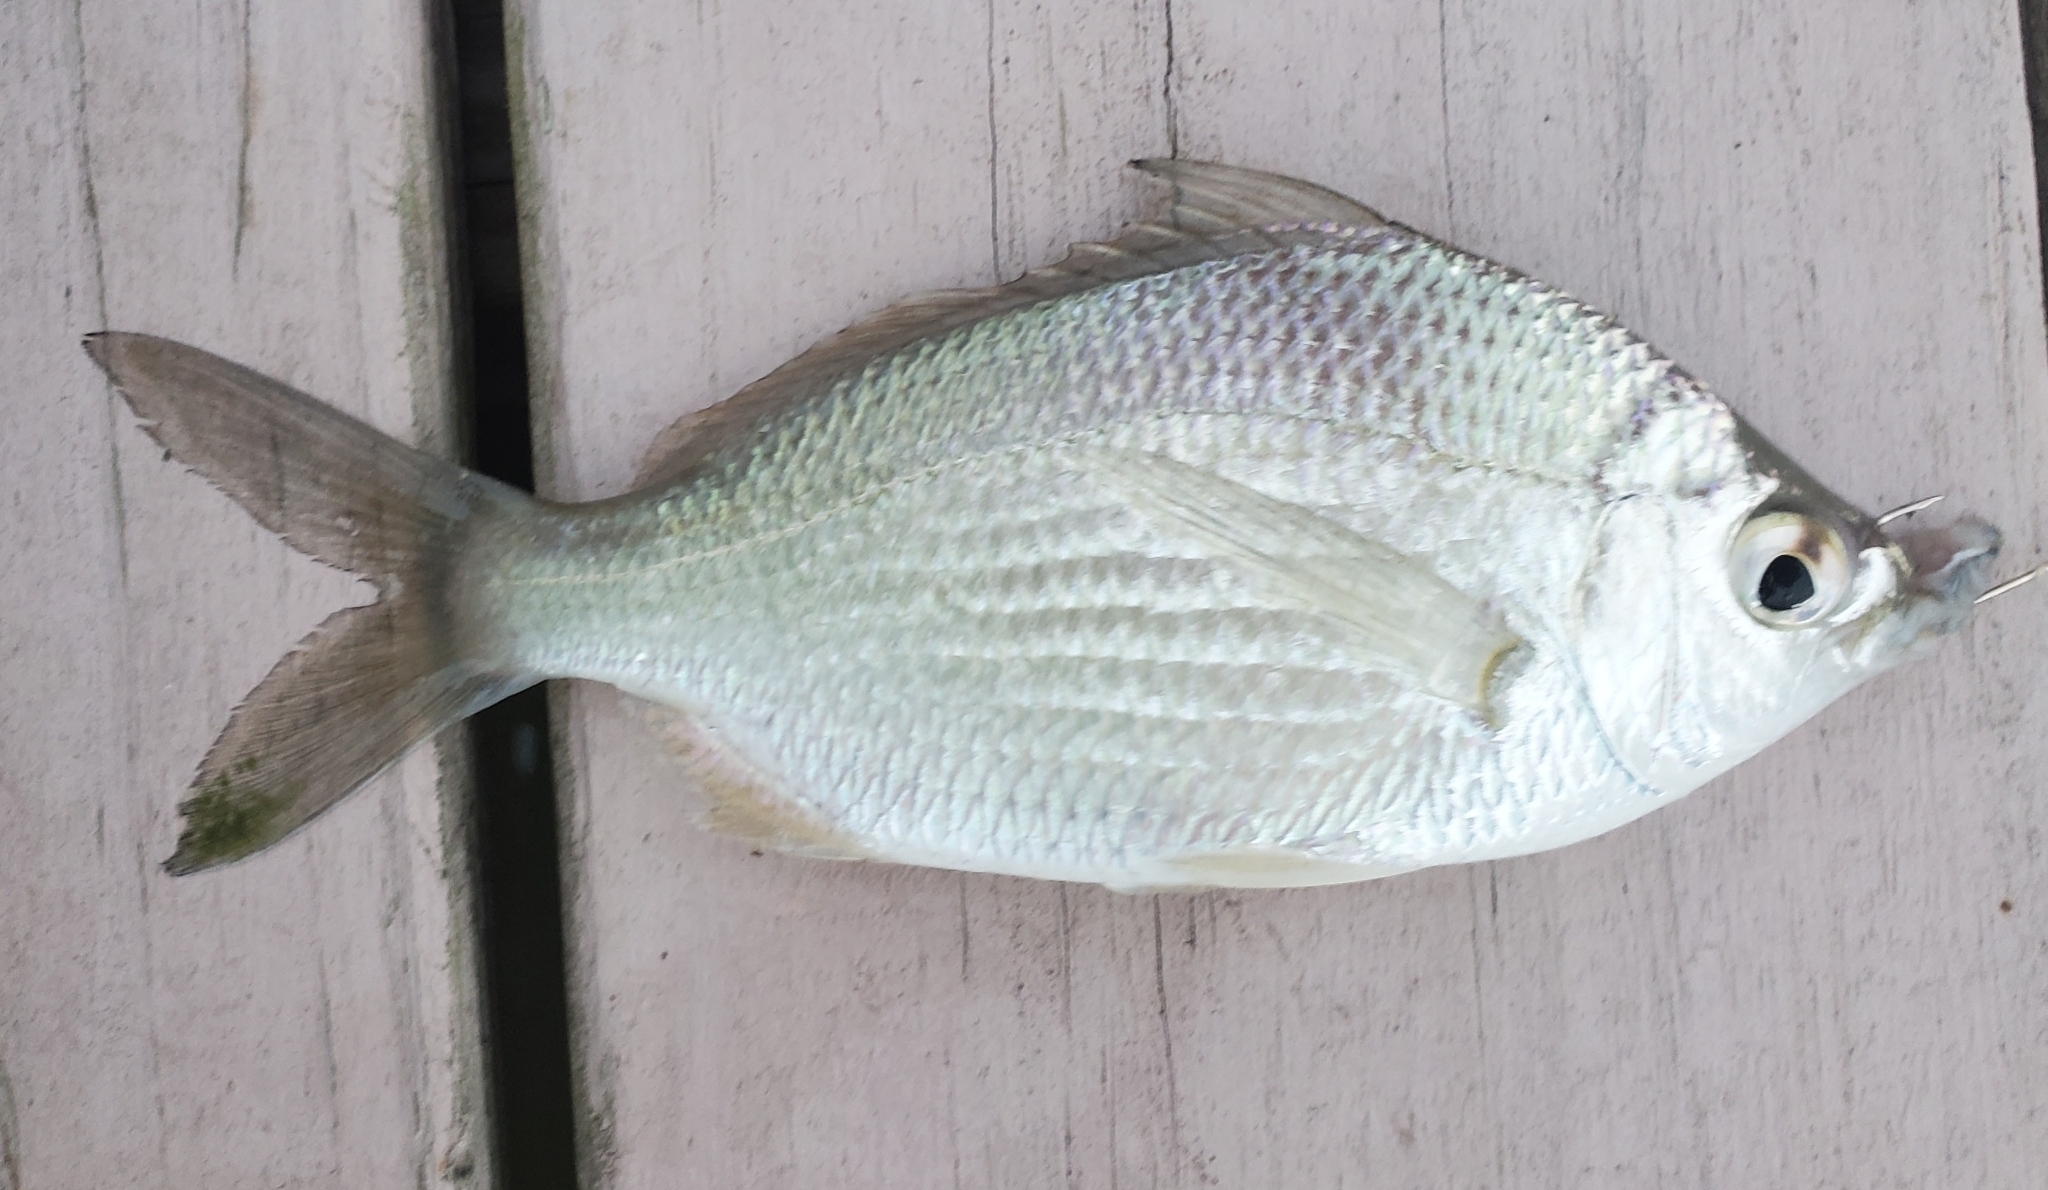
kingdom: Animalia
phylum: Chordata
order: Perciformes
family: Gerreidae
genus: Eucinostomus
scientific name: Eucinostomus gula
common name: Silver jenny
